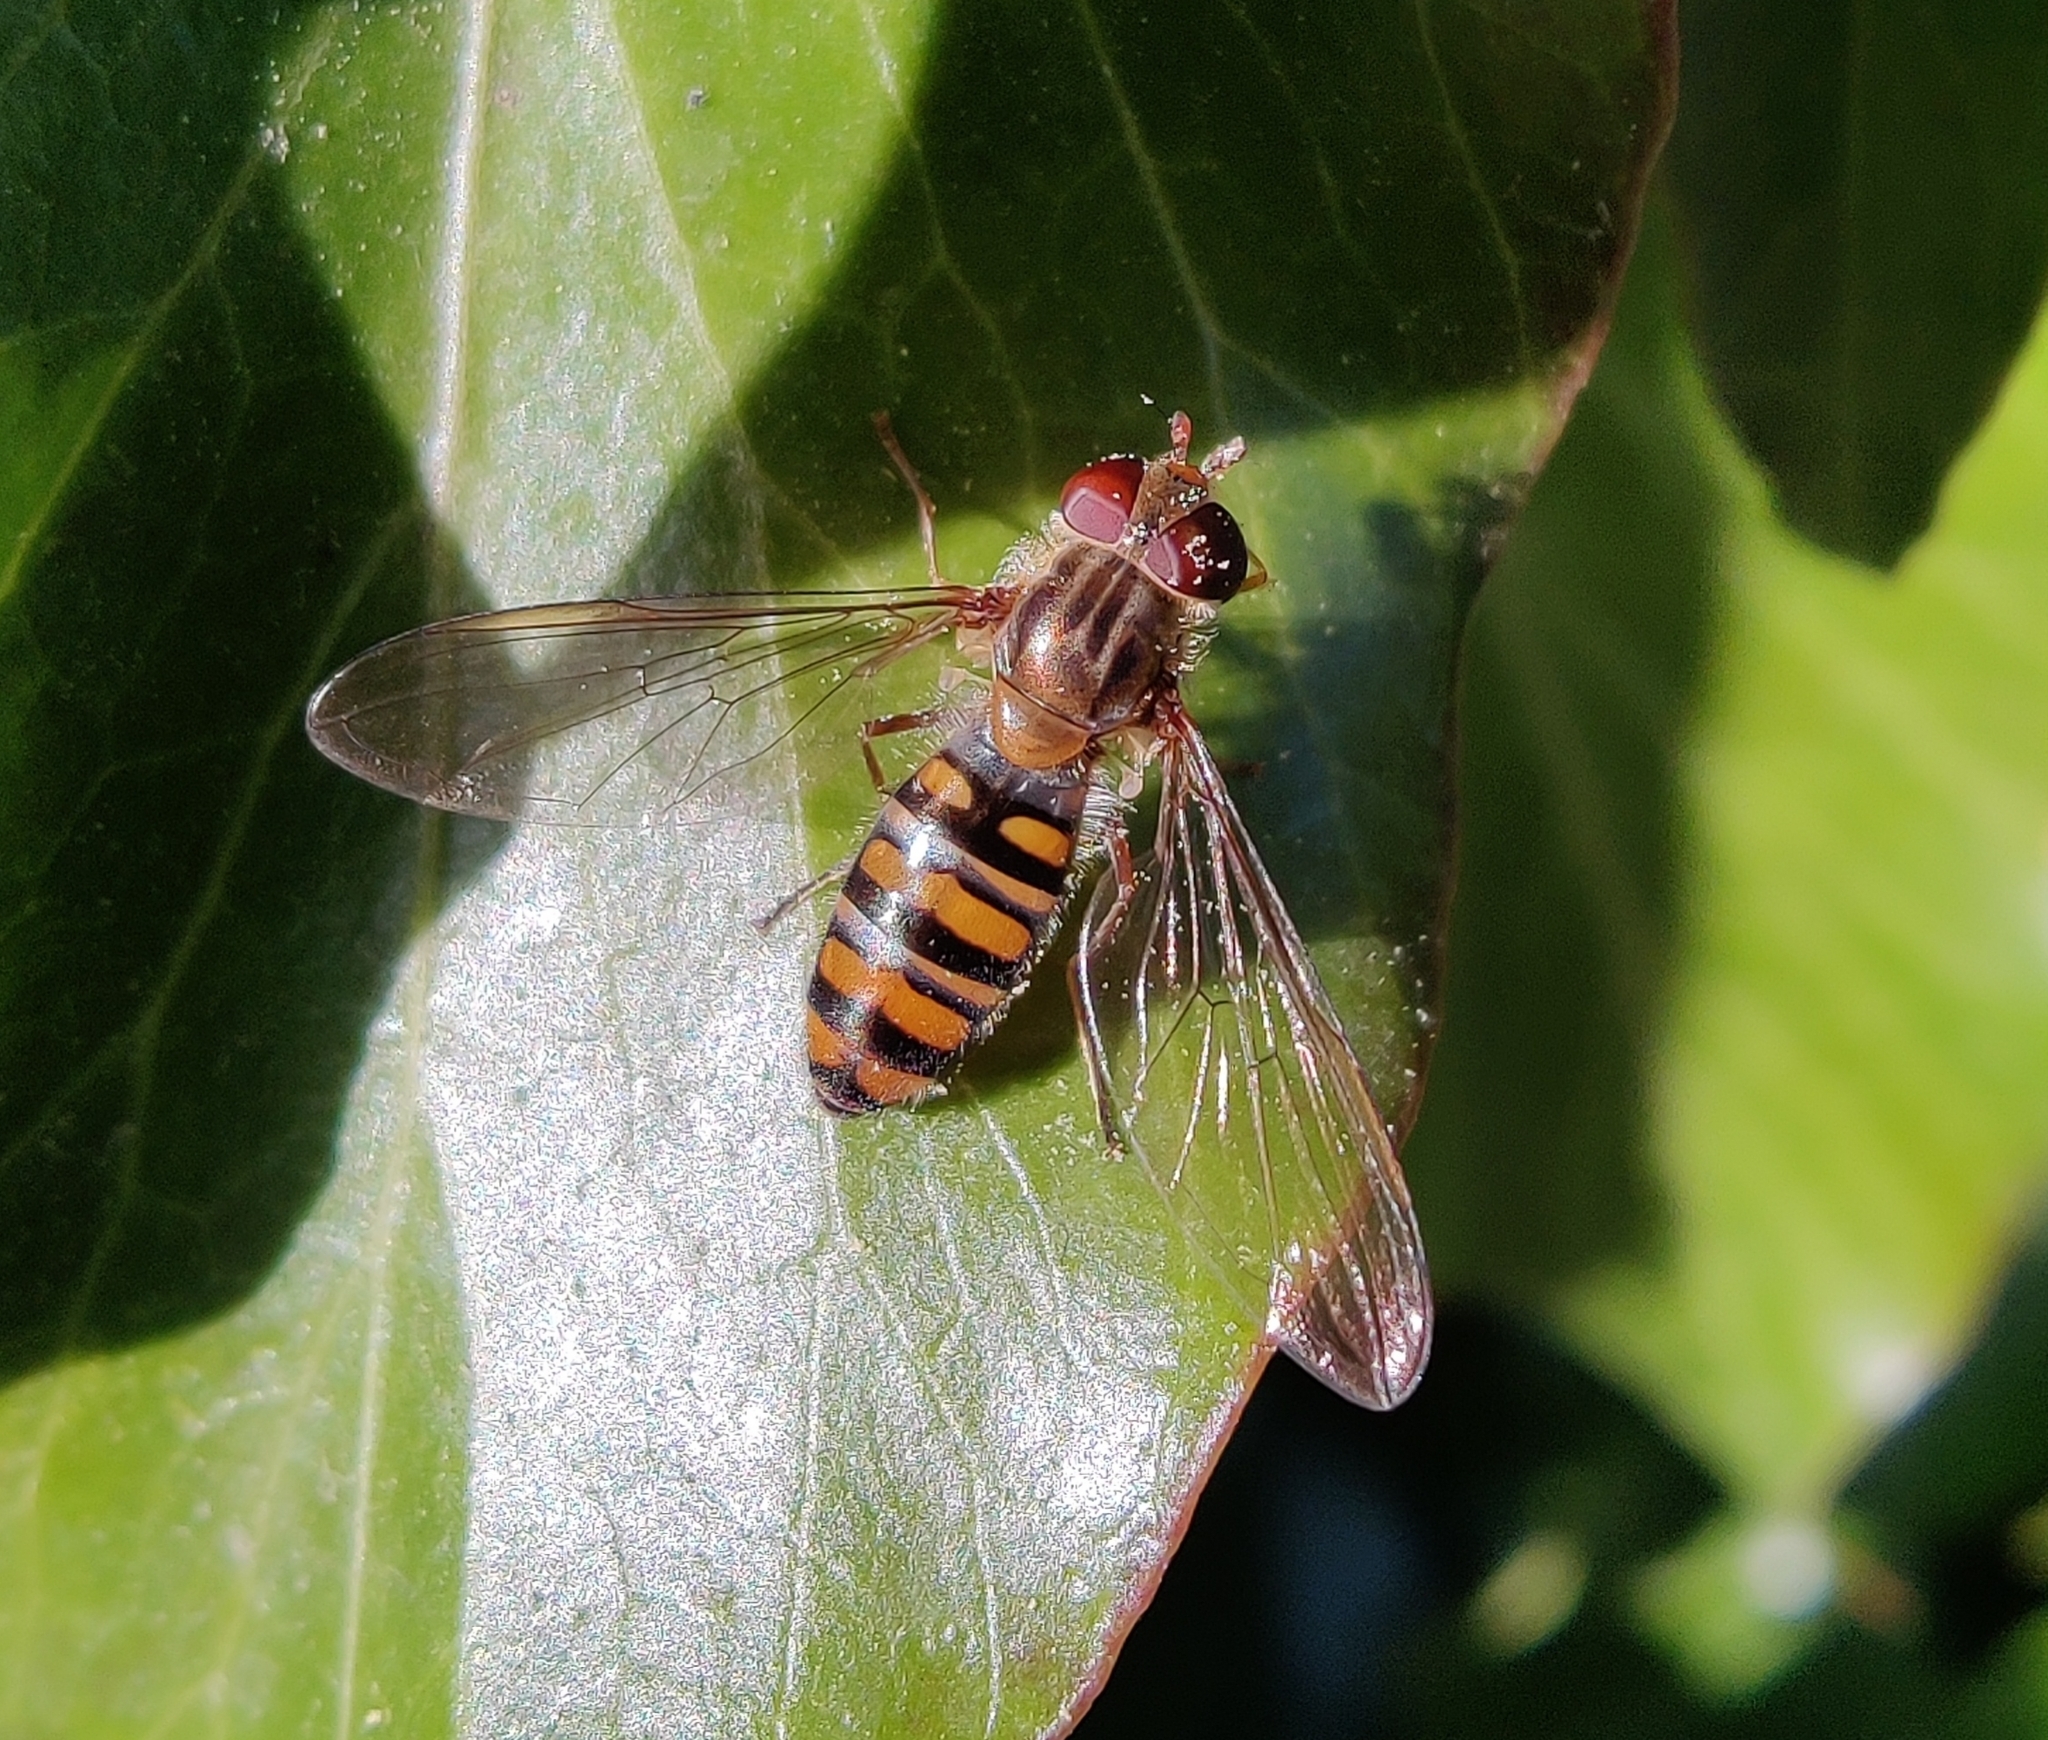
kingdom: Animalia
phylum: Arthropoda
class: Insecta
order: Diptera
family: Syrphidae
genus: Episyrphus
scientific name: Episyrphus balteatus
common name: Marmalade hoverfly
